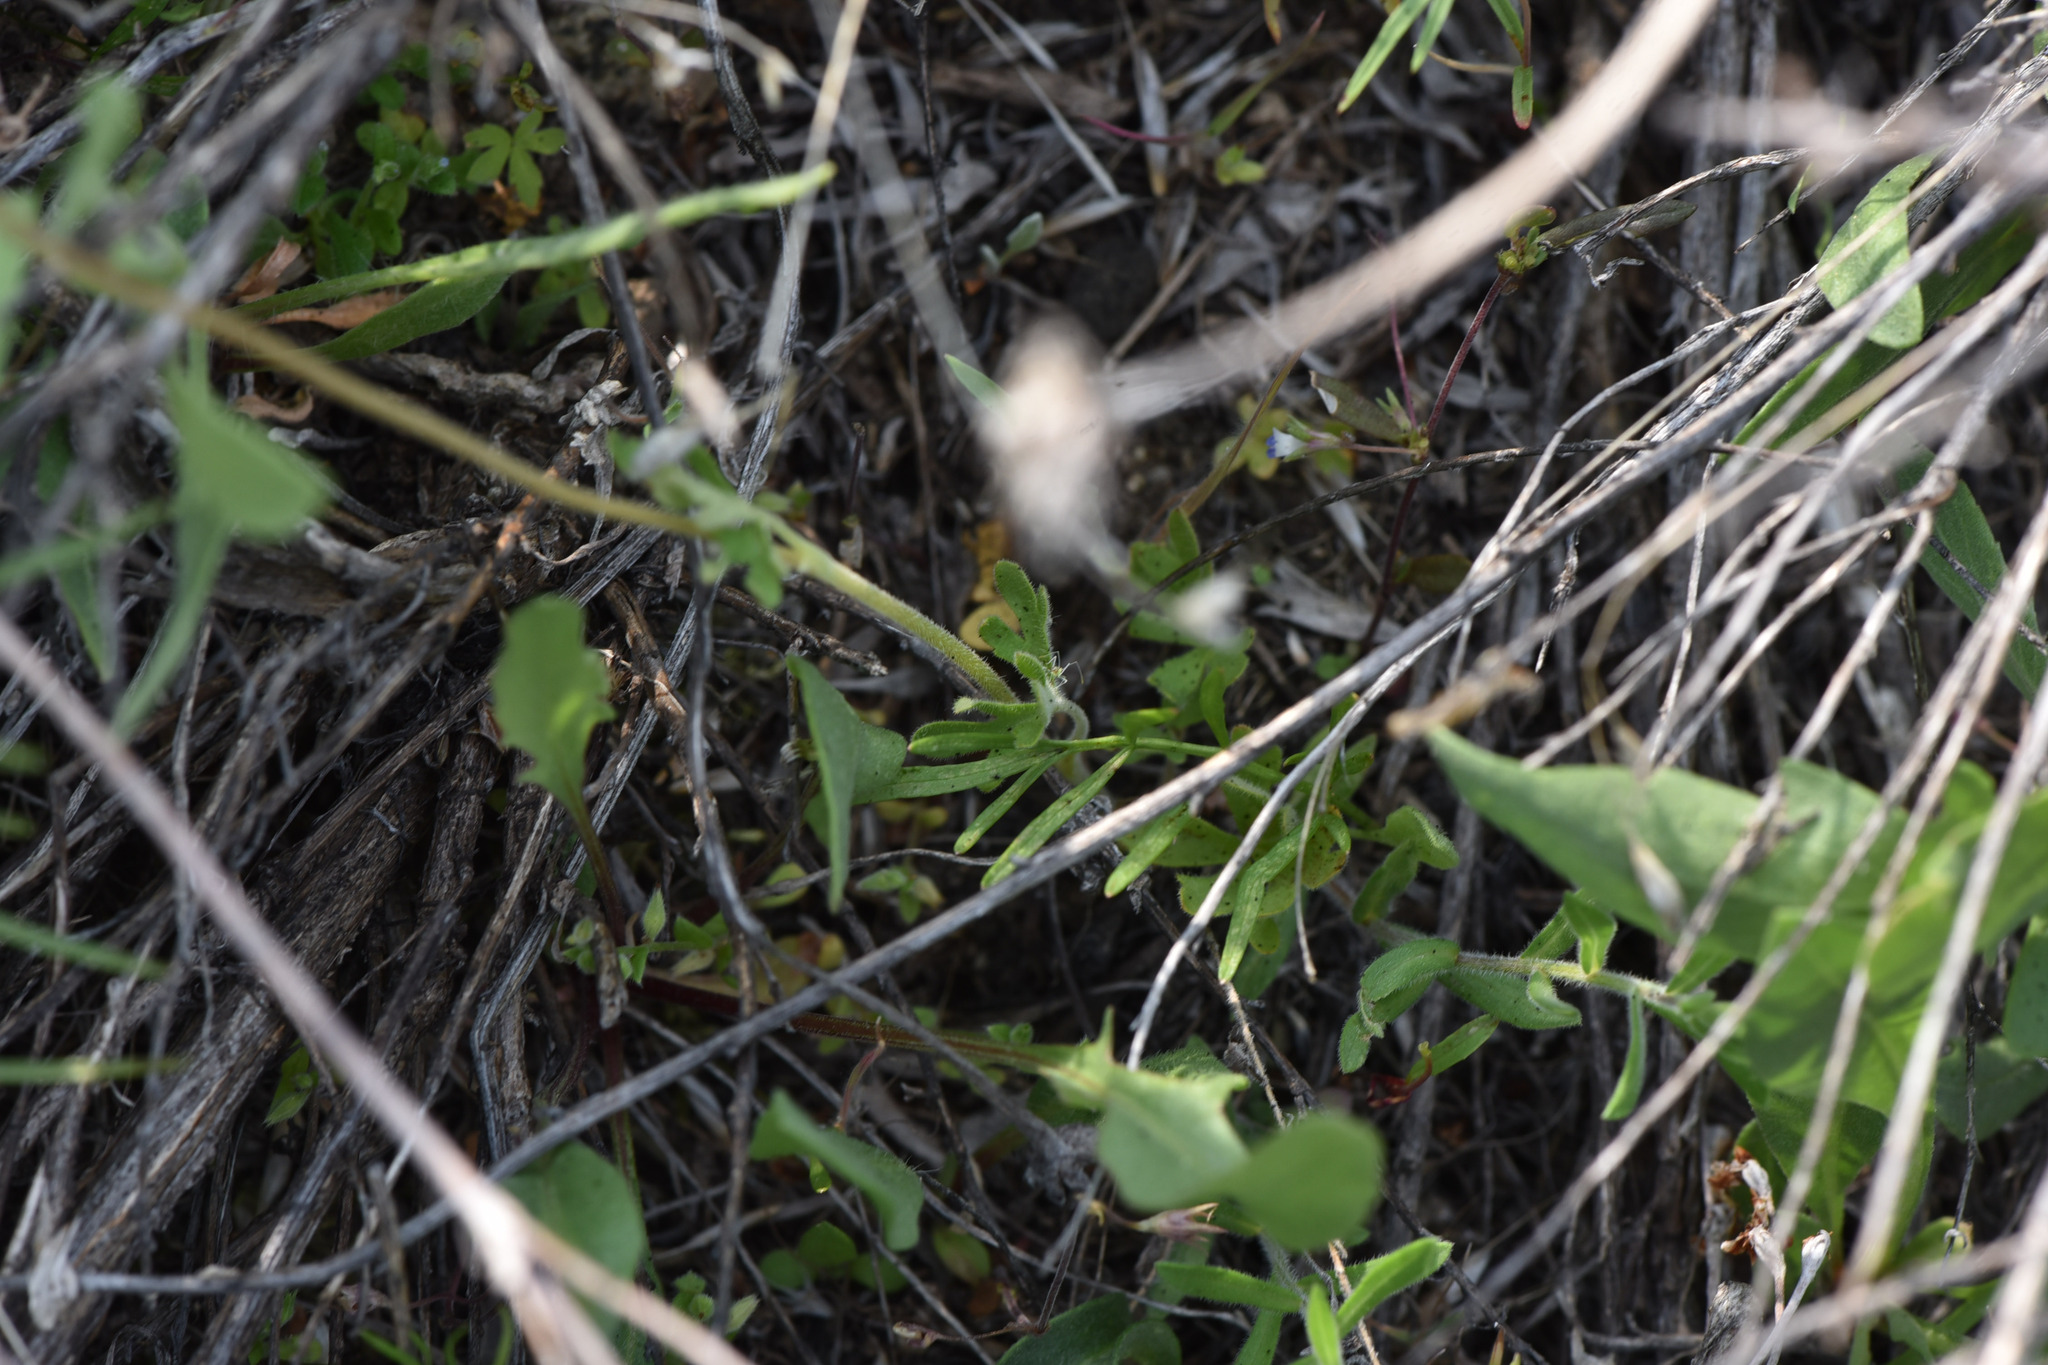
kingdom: Plantae
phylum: Tracheophyta
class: Magnoliopsida
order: Saxifragales
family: Saxifragaceae
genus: Lithophragma
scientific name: Lithophragma parviflorum
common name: Small-flowered fringe-cup
